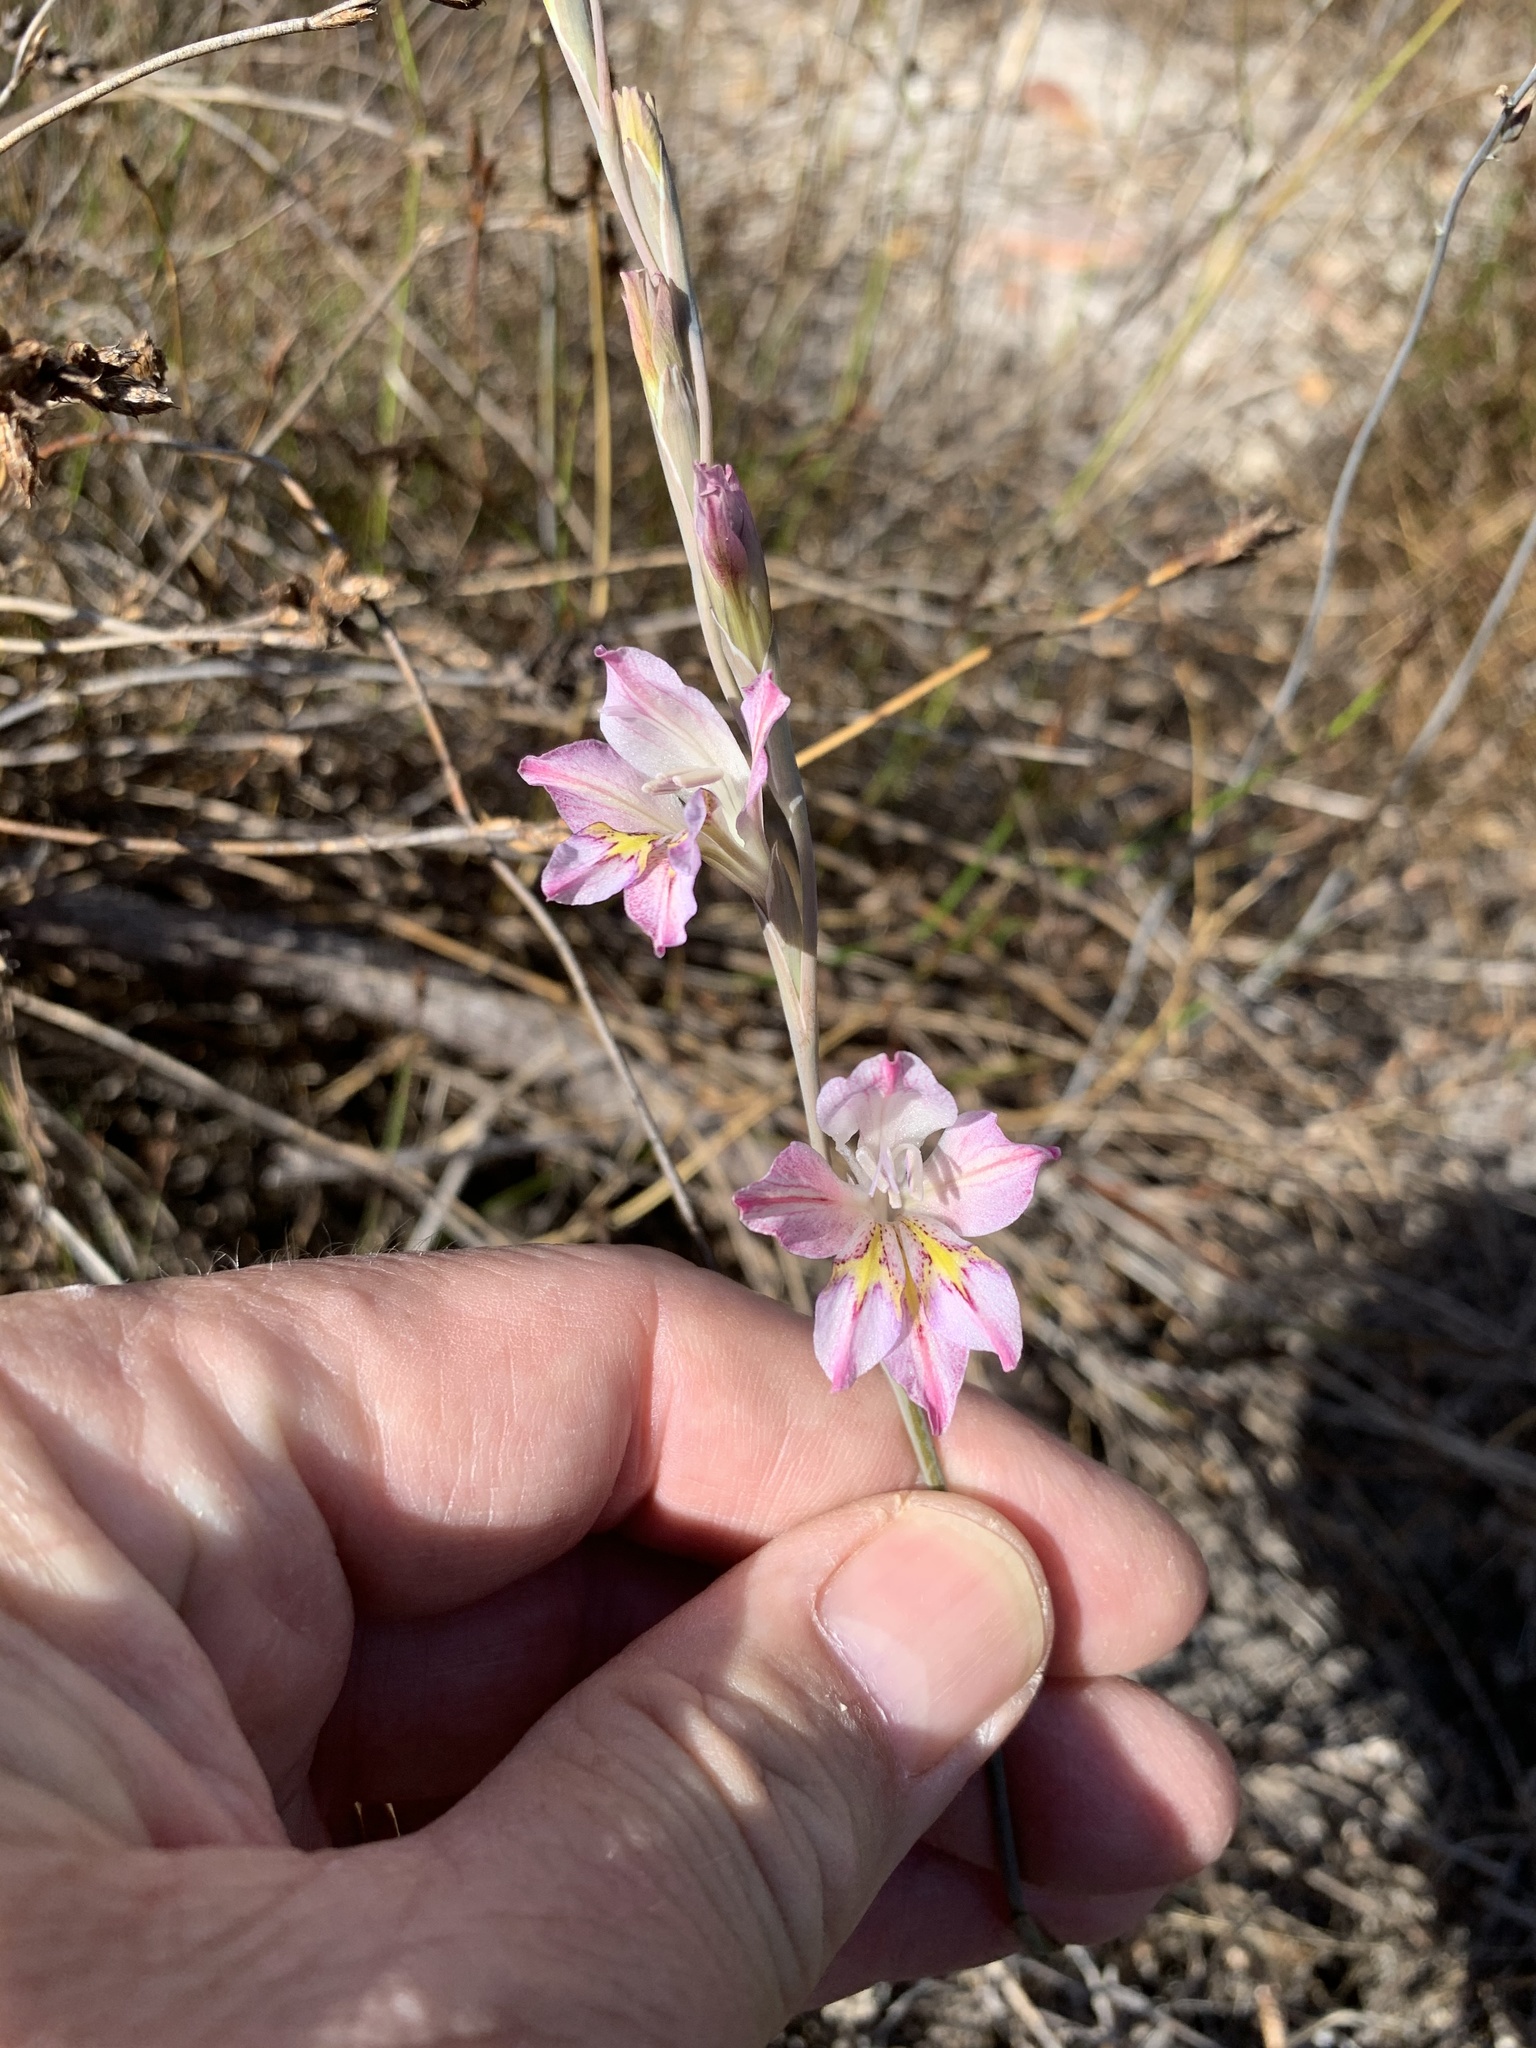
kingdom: Plantae
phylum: Tracheophyta
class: Liliopsida
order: Asparagales
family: Iridaceae
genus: Gladiolus
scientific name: Gladiolus brevifolius
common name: March pypie
